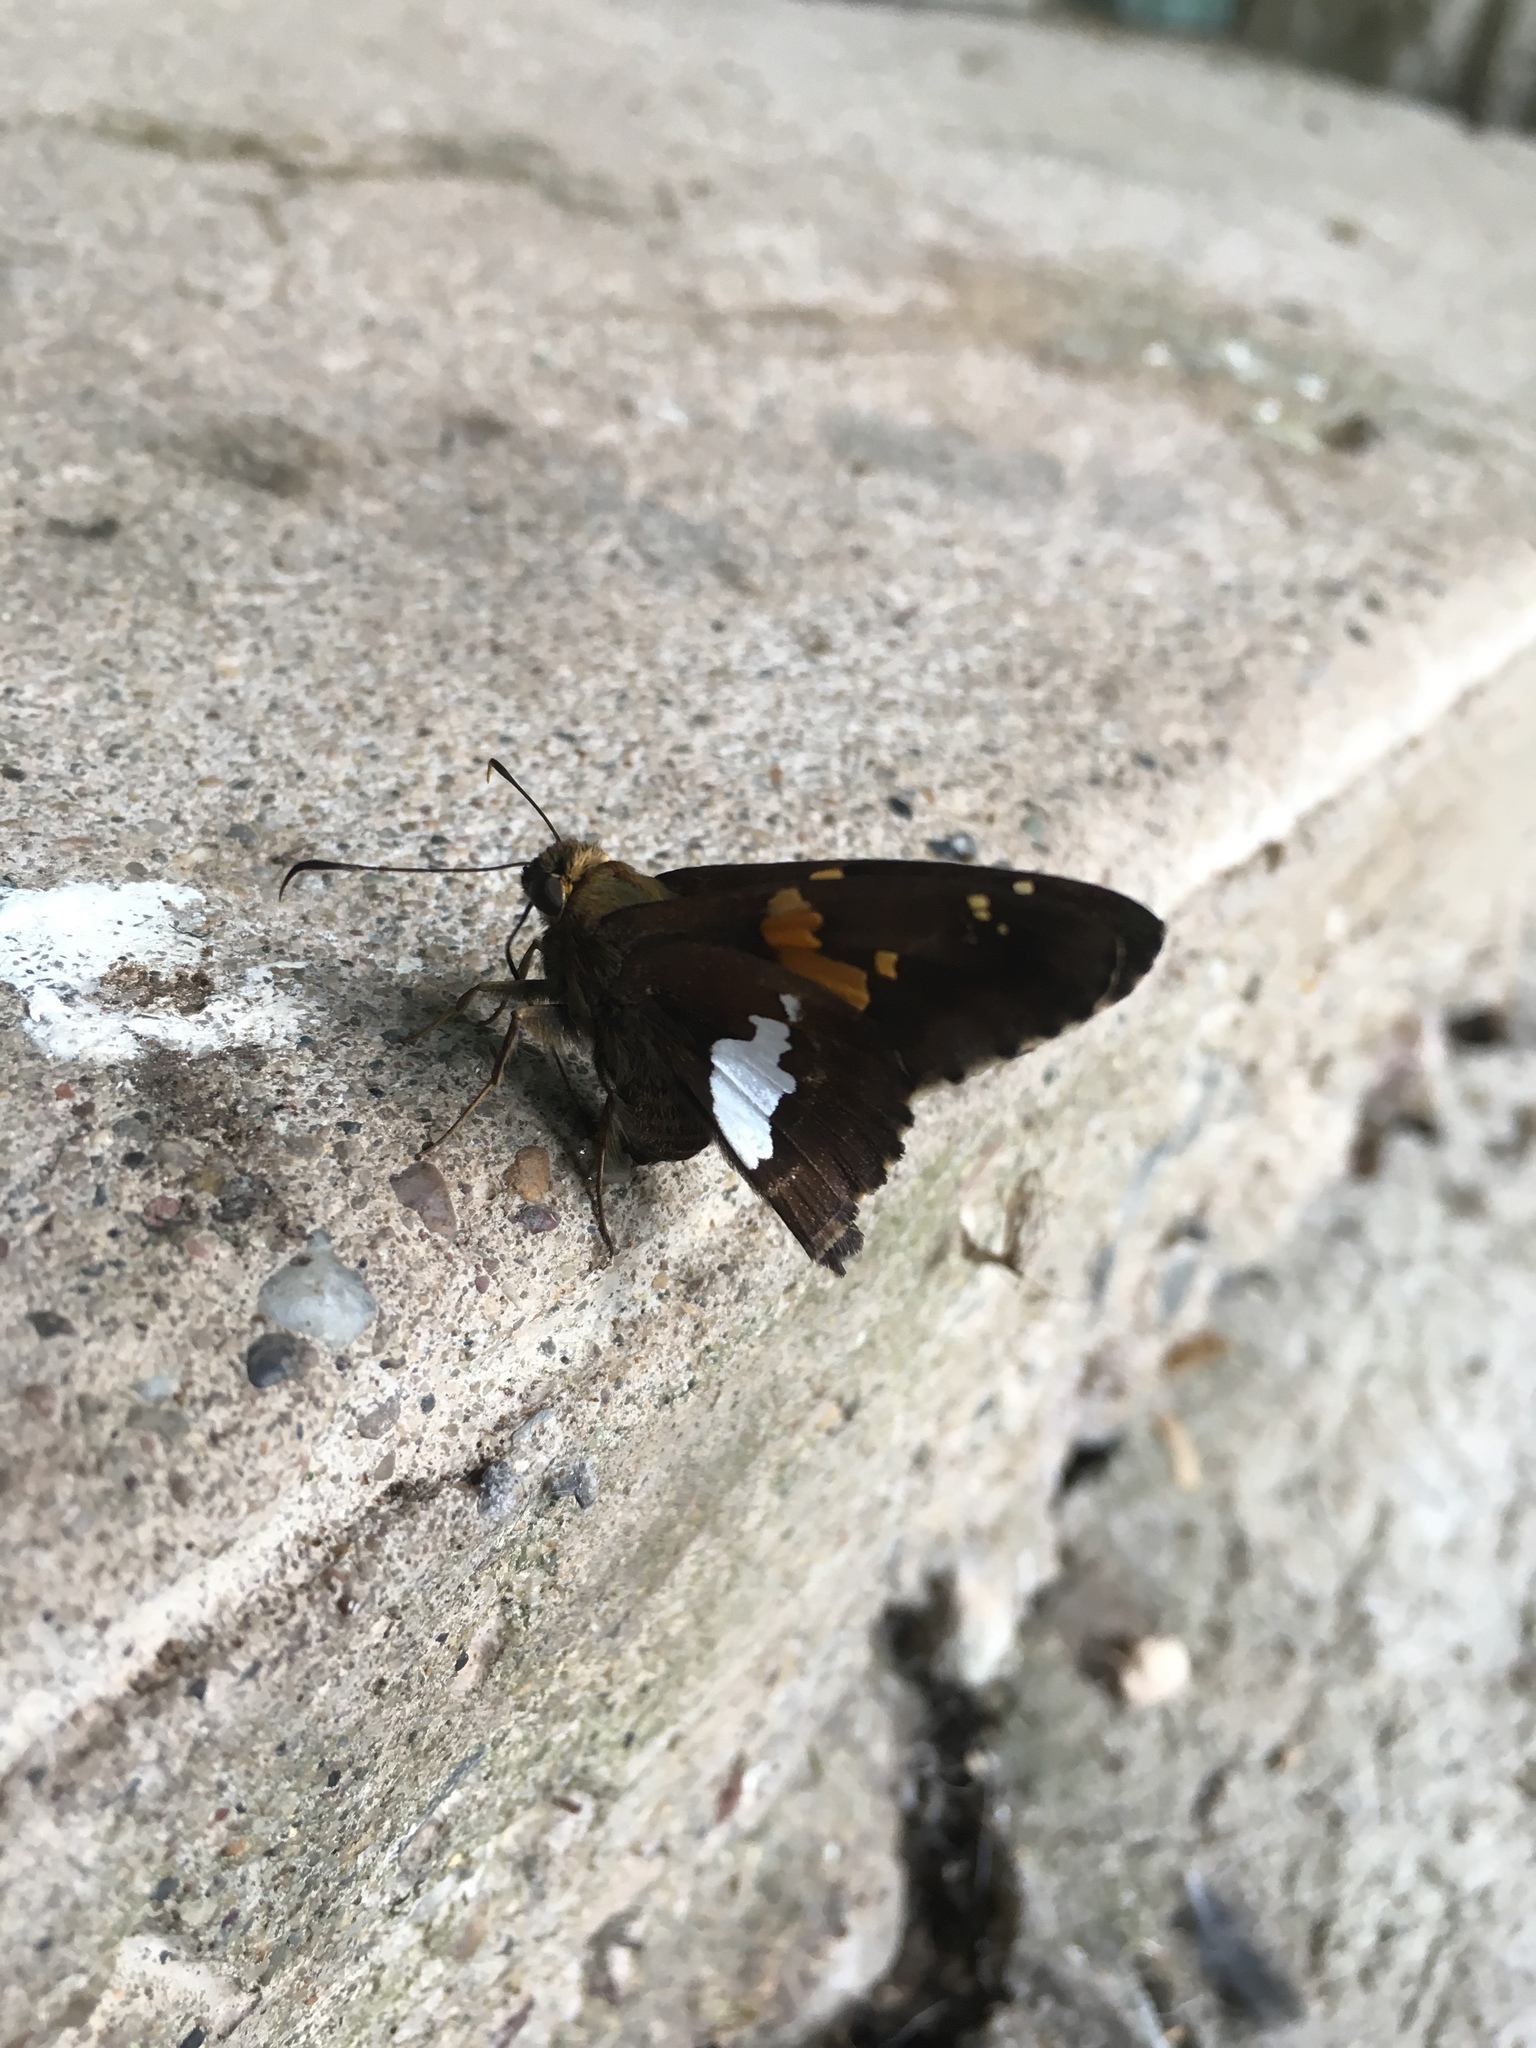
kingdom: Animalia
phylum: Arthropoda
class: Insecta
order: Lepidoptera
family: Hesperiidae
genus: Epargyreus
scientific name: Epargyreus clarus
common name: Silver-spotted skipper
